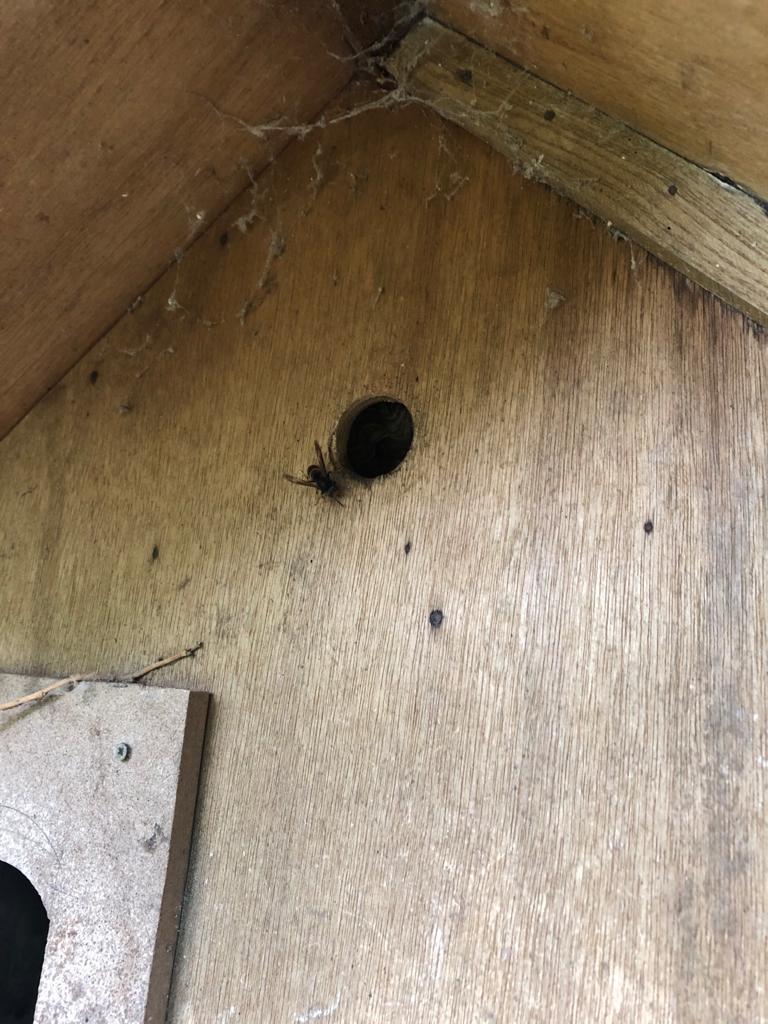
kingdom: Animalia
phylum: Arthropoda
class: Insecta
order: Hymenoptera
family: Vespidae
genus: Vespa
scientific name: Vespa velutina
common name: Asian hornet
